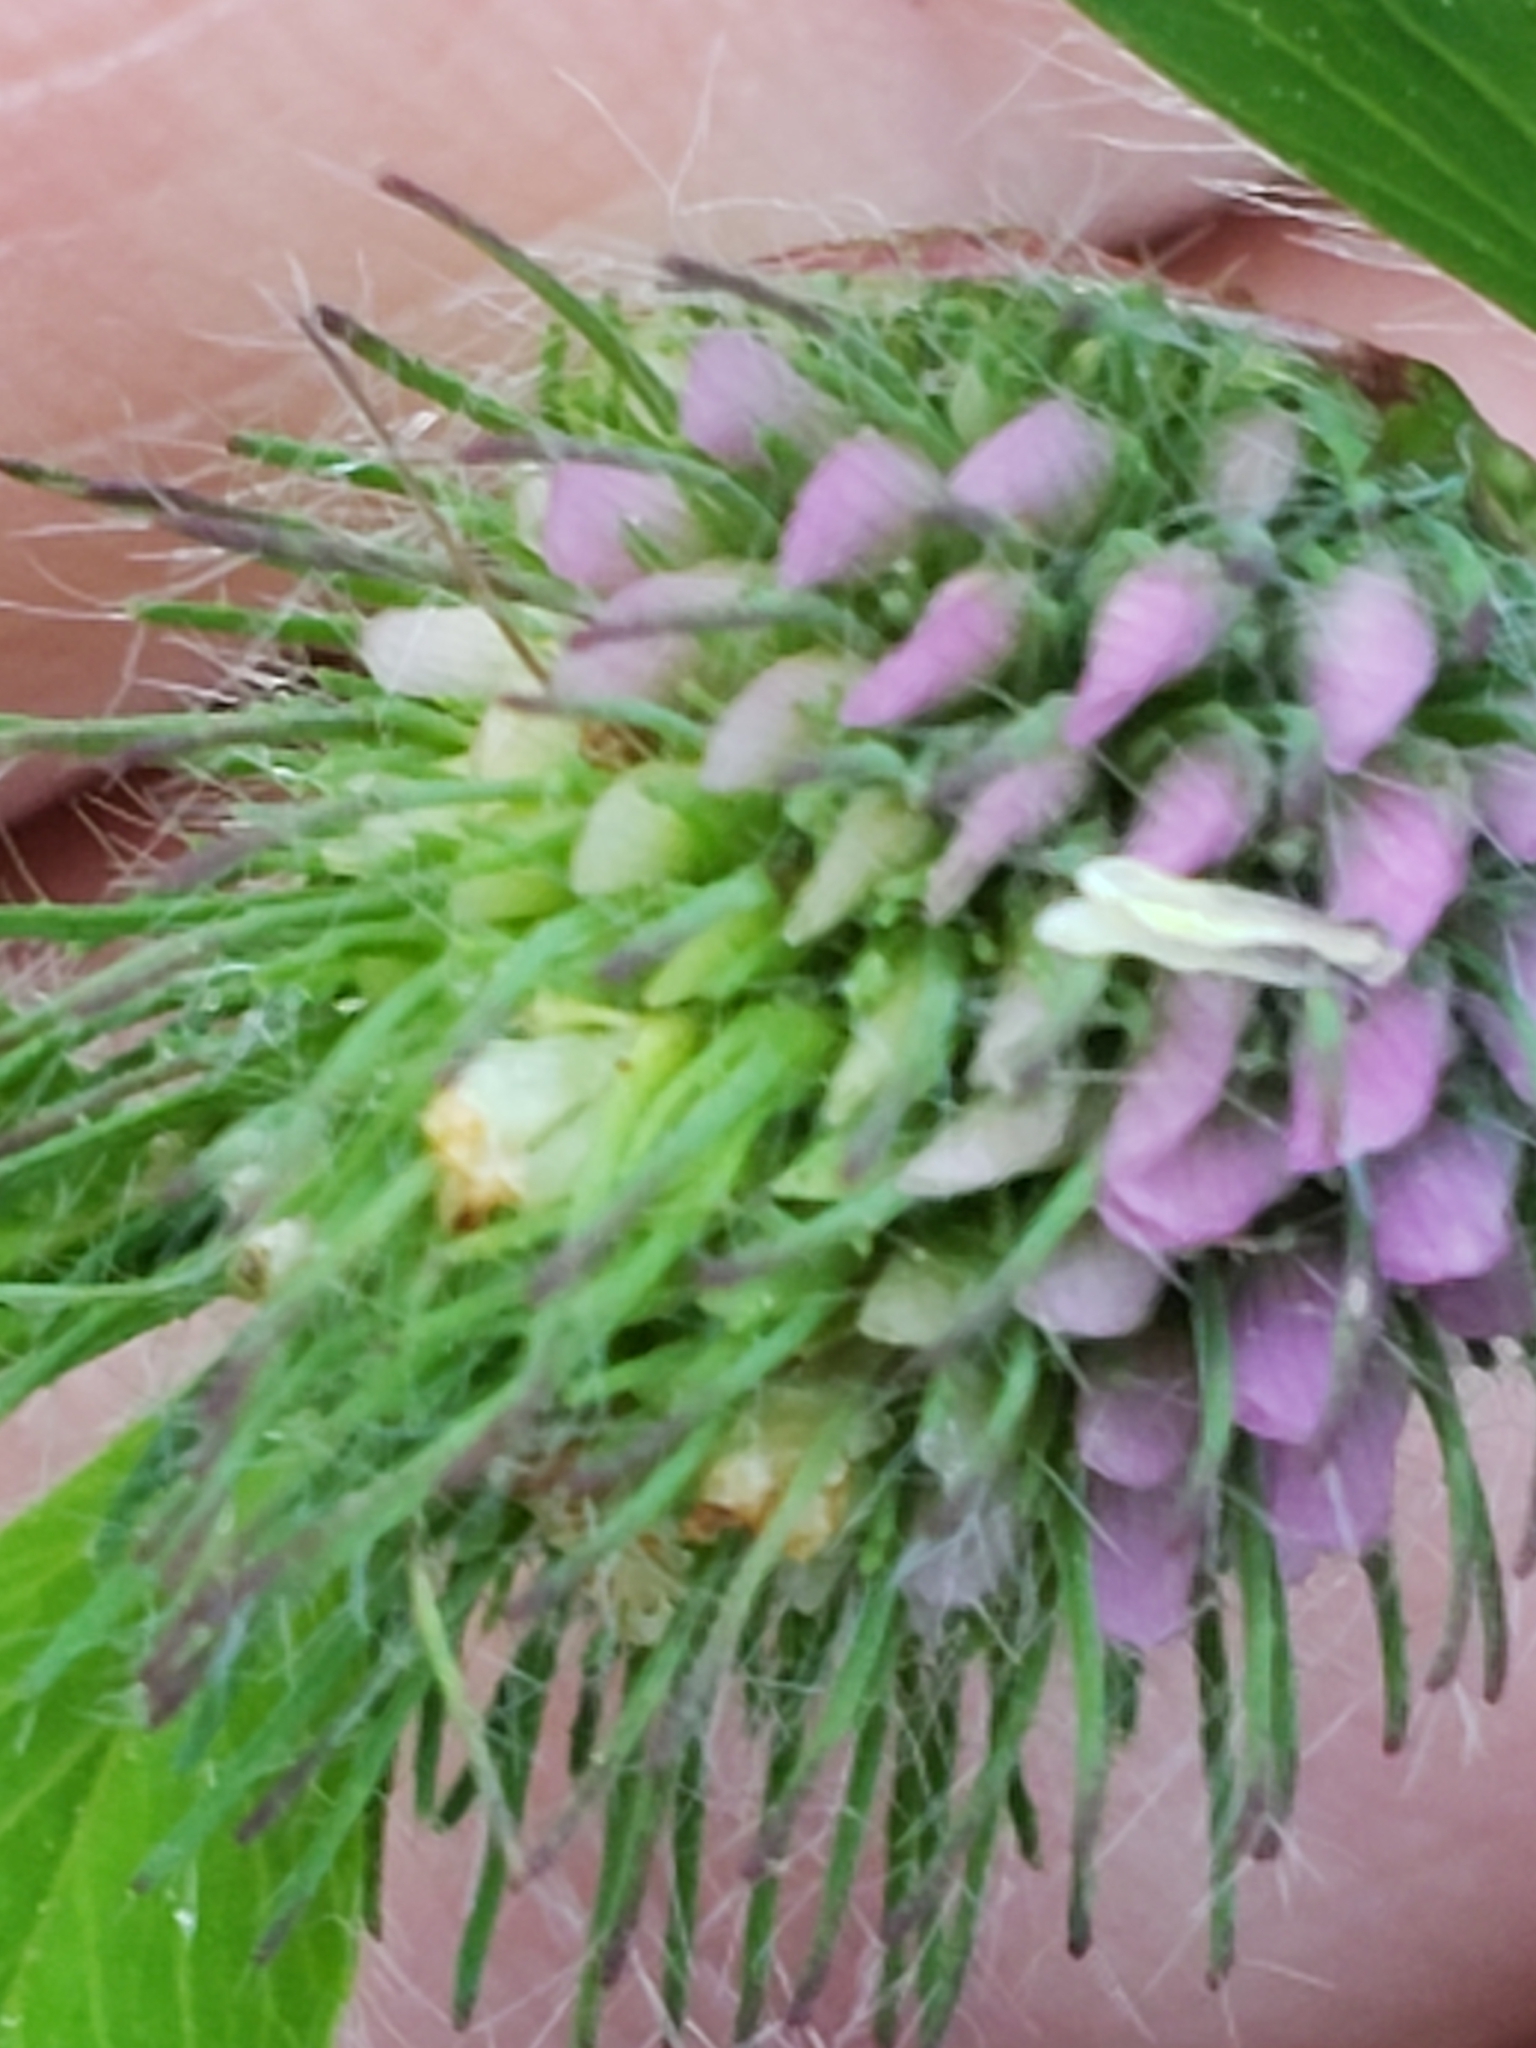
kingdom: Plantae
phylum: Tracheophyta
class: Magnoliopsida
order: Fabales
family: Fabaceae
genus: Trifolium
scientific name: Trifolium pratense
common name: Red clover
